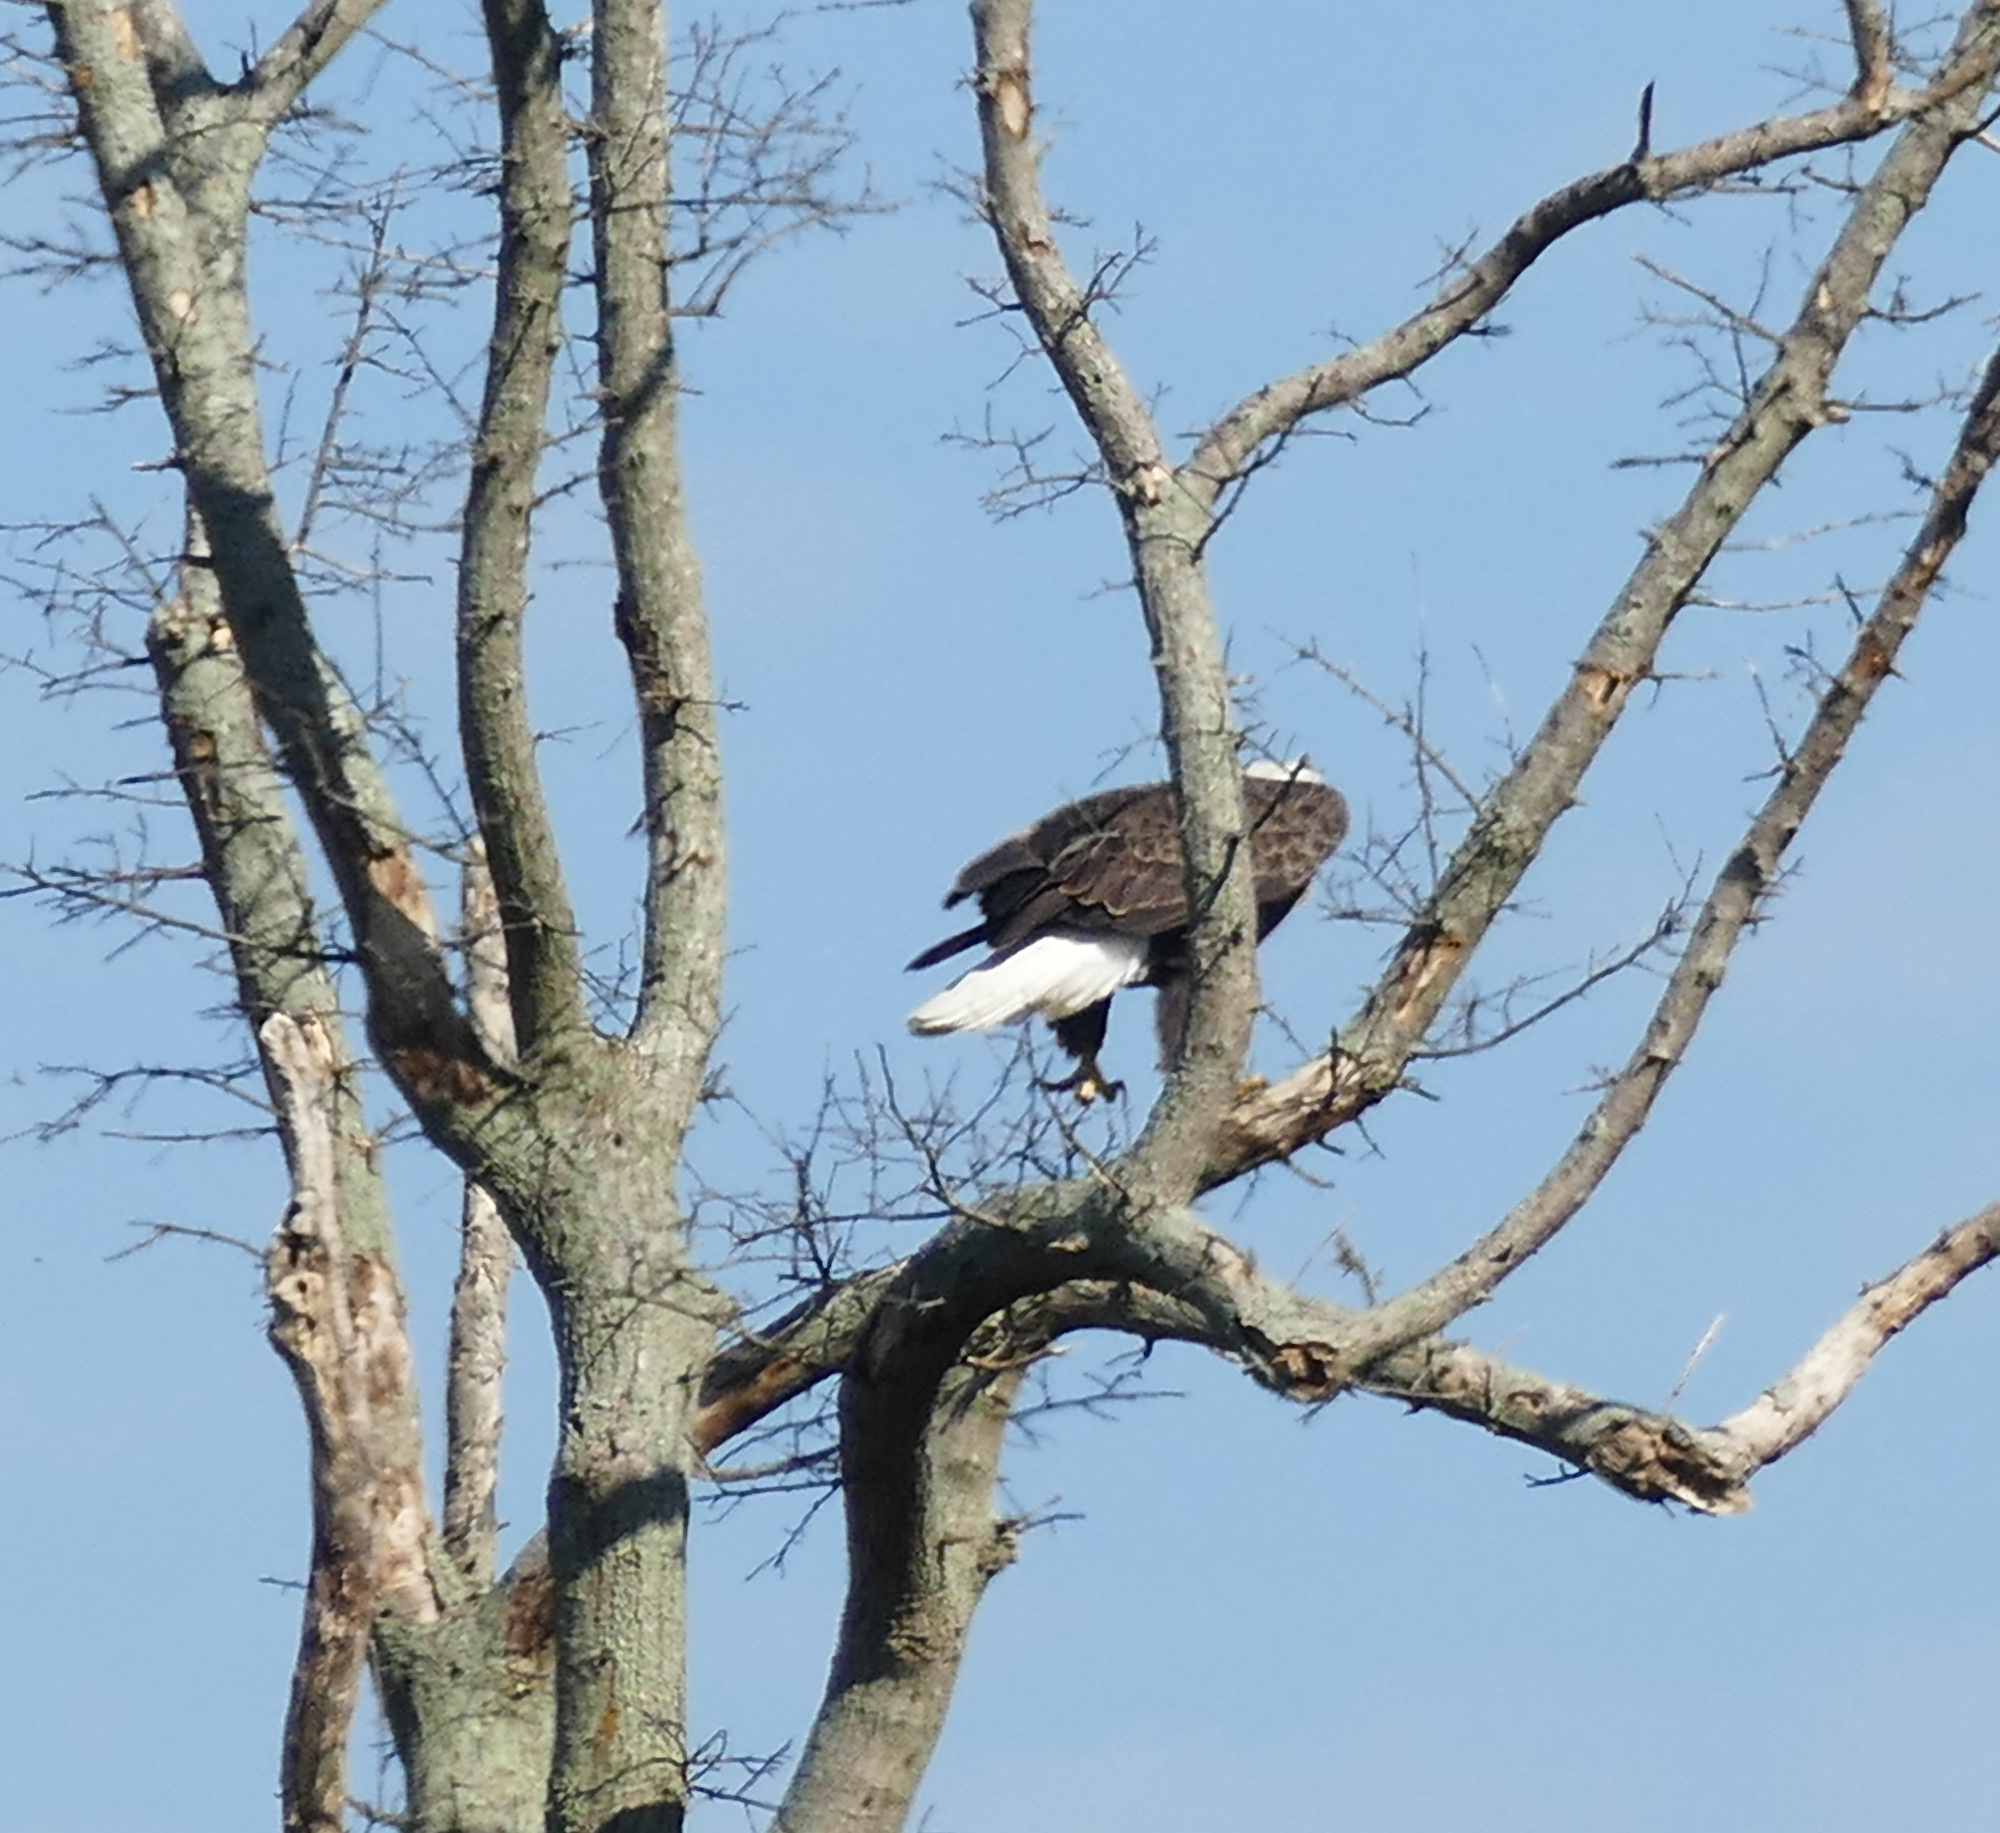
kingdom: Animalia
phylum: Chordata
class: Aves
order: Accipitriformes
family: Accipitridae
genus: Haliaeetus
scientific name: Haliaeetus leucocephalus
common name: Bald eagle
